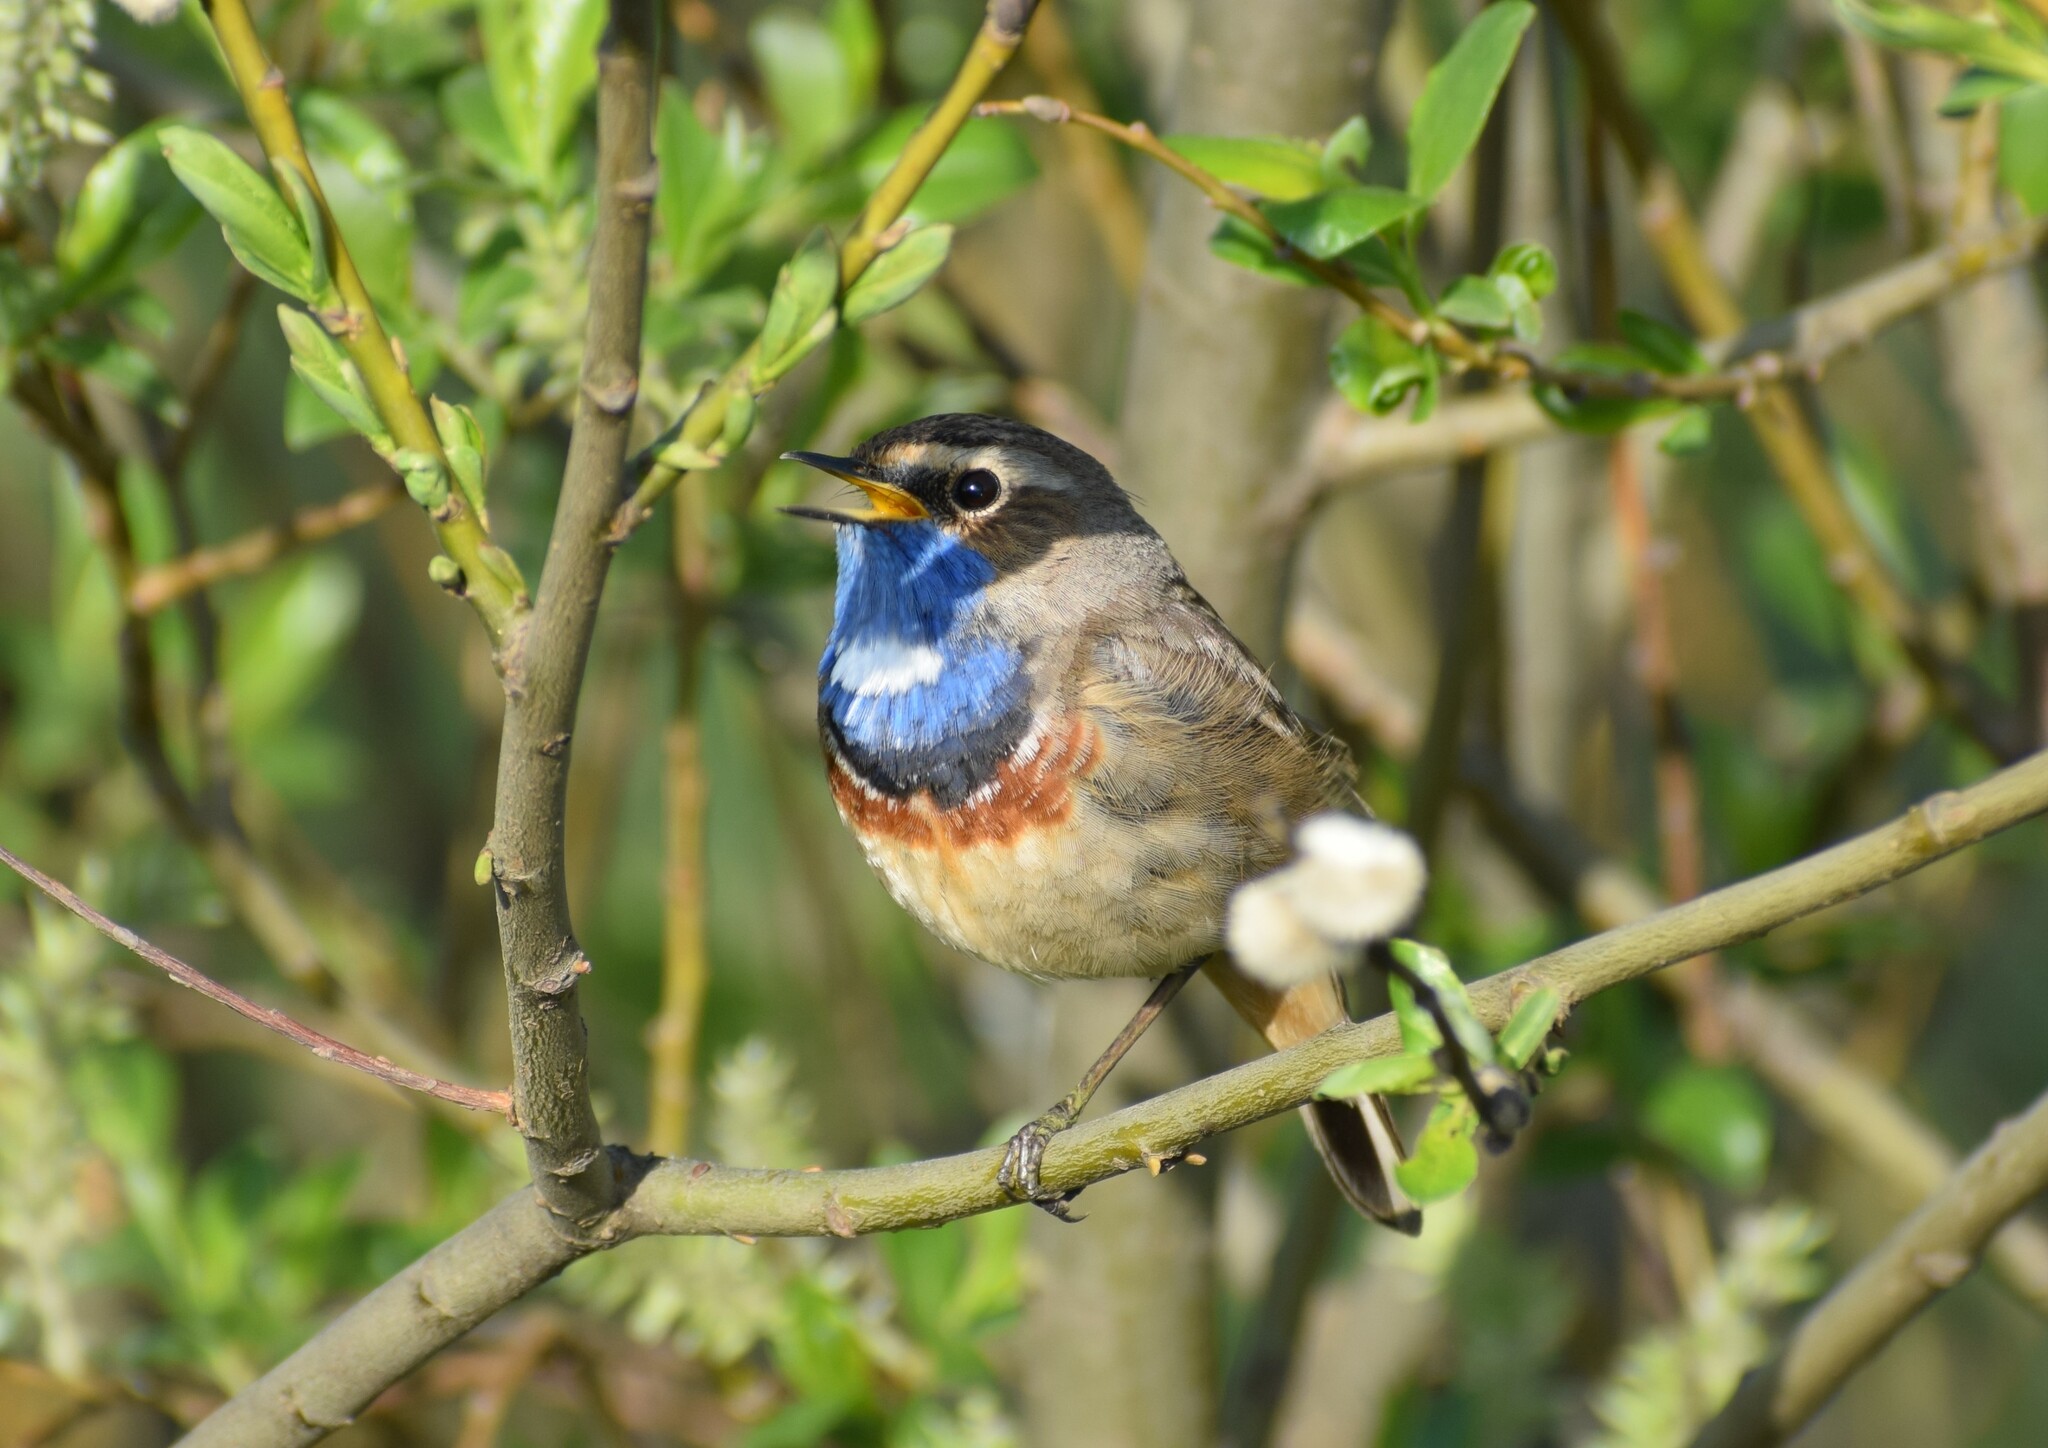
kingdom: Animalia
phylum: Chordata
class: Aves
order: Passeriformes
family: Muscicapidae
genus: Luscinia
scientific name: Luscinia svecica
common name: Bluethroat
